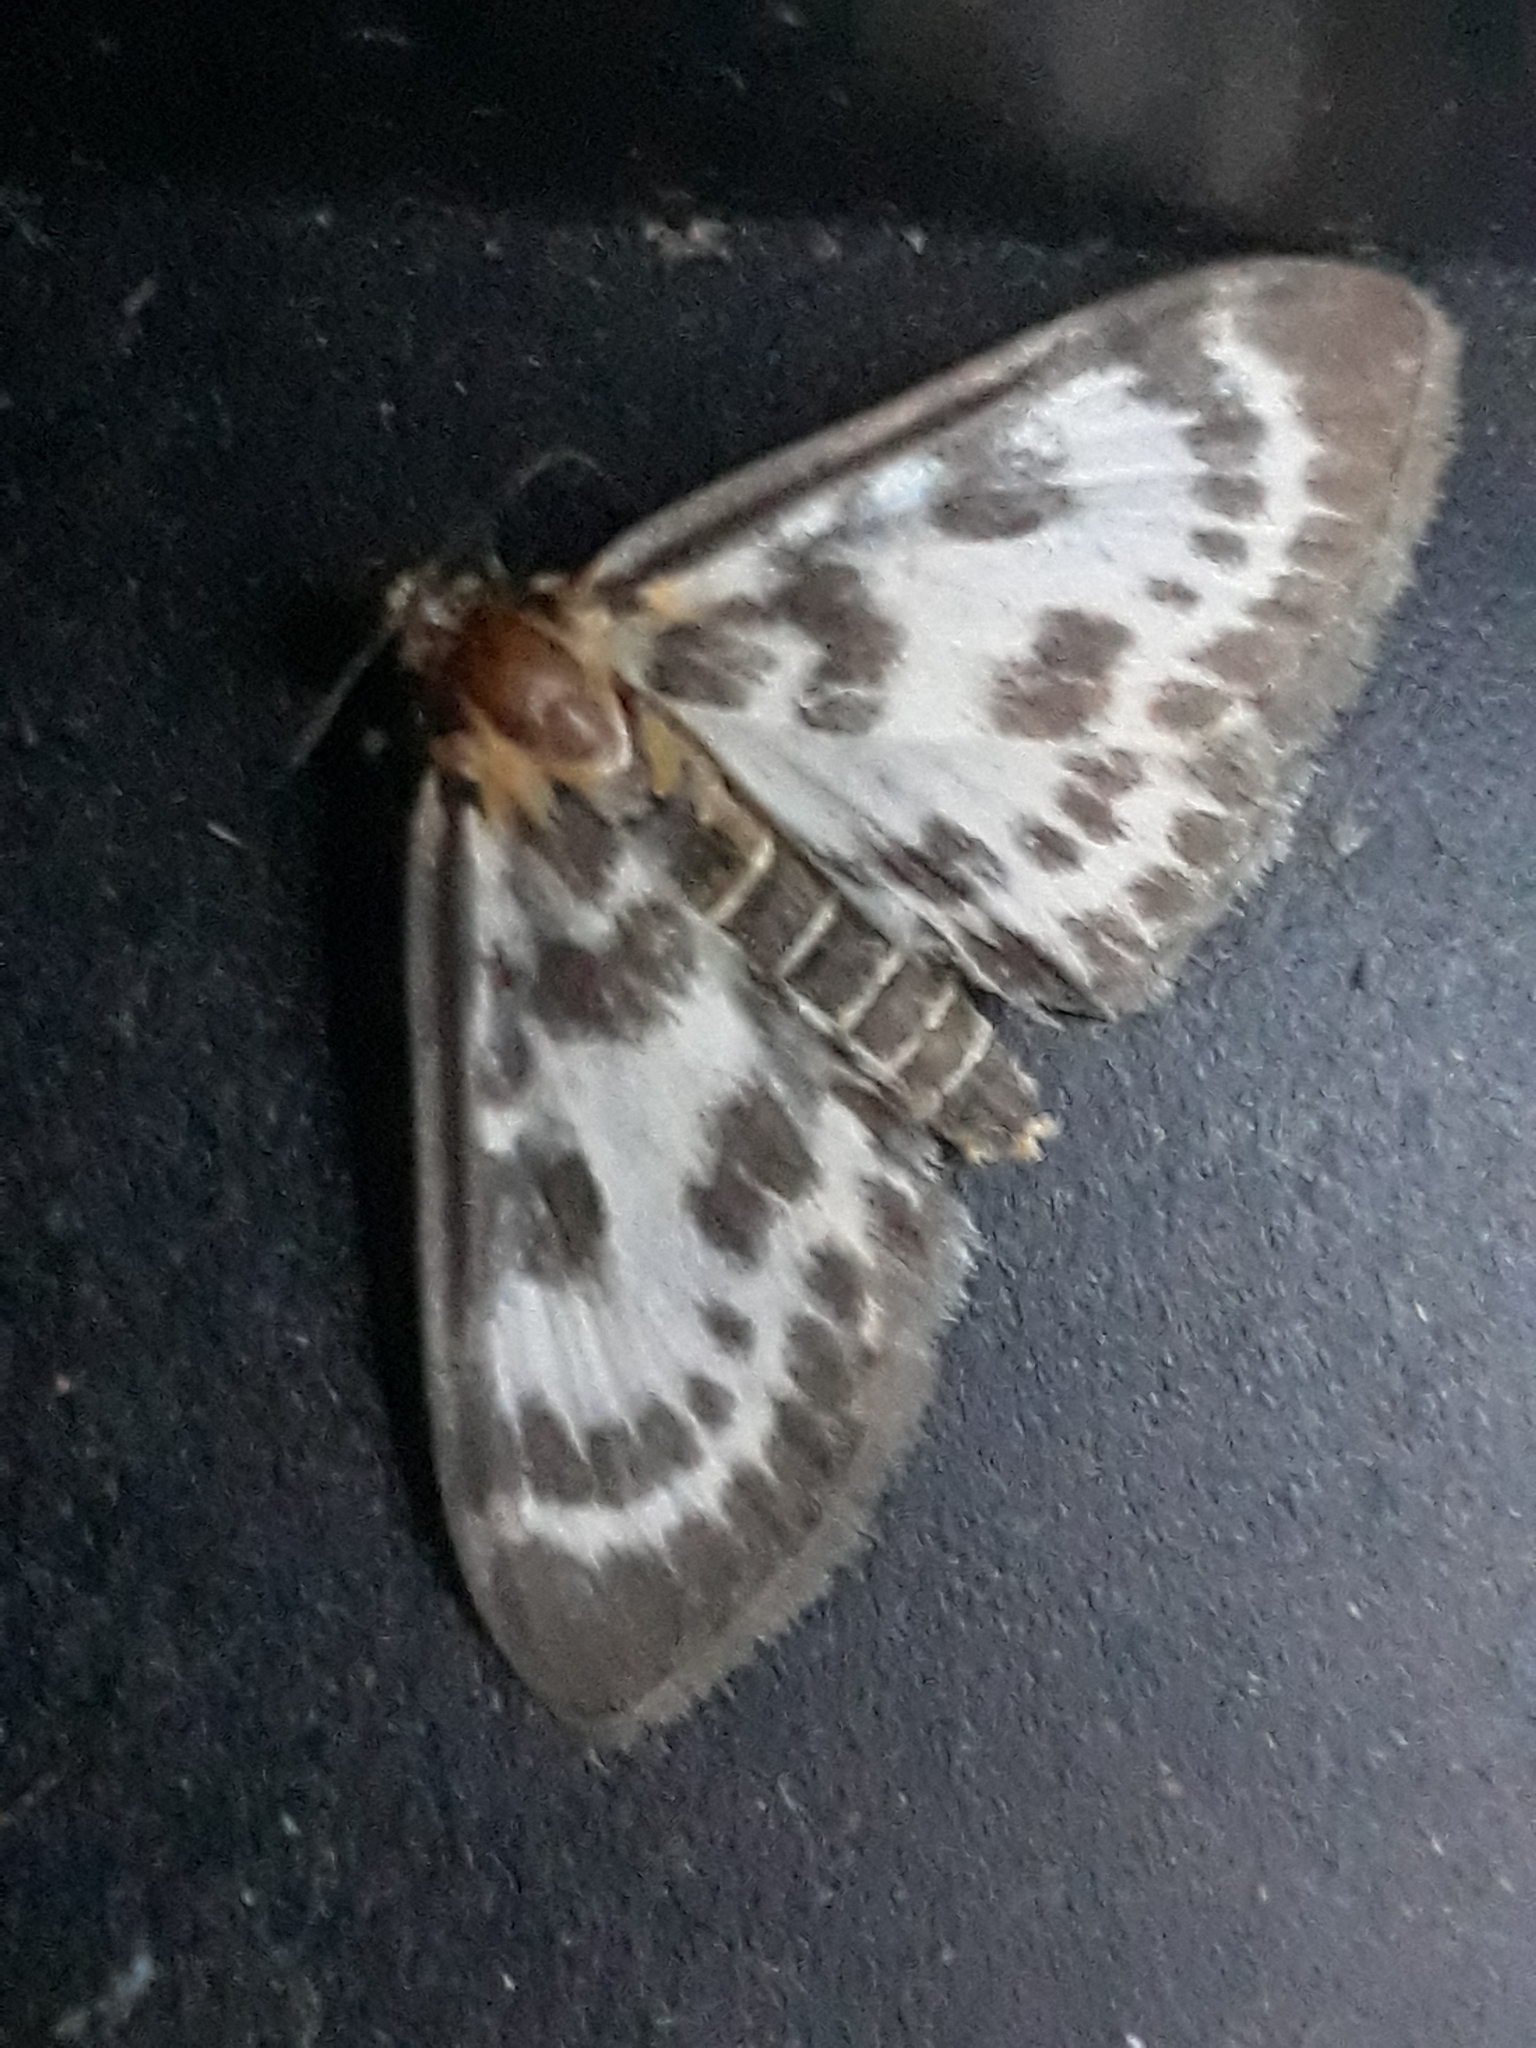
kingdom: Animalia
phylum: Arthropoda
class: Insecta
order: Lepidoptera
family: Crambidae
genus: Anania
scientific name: Anania hortulata
